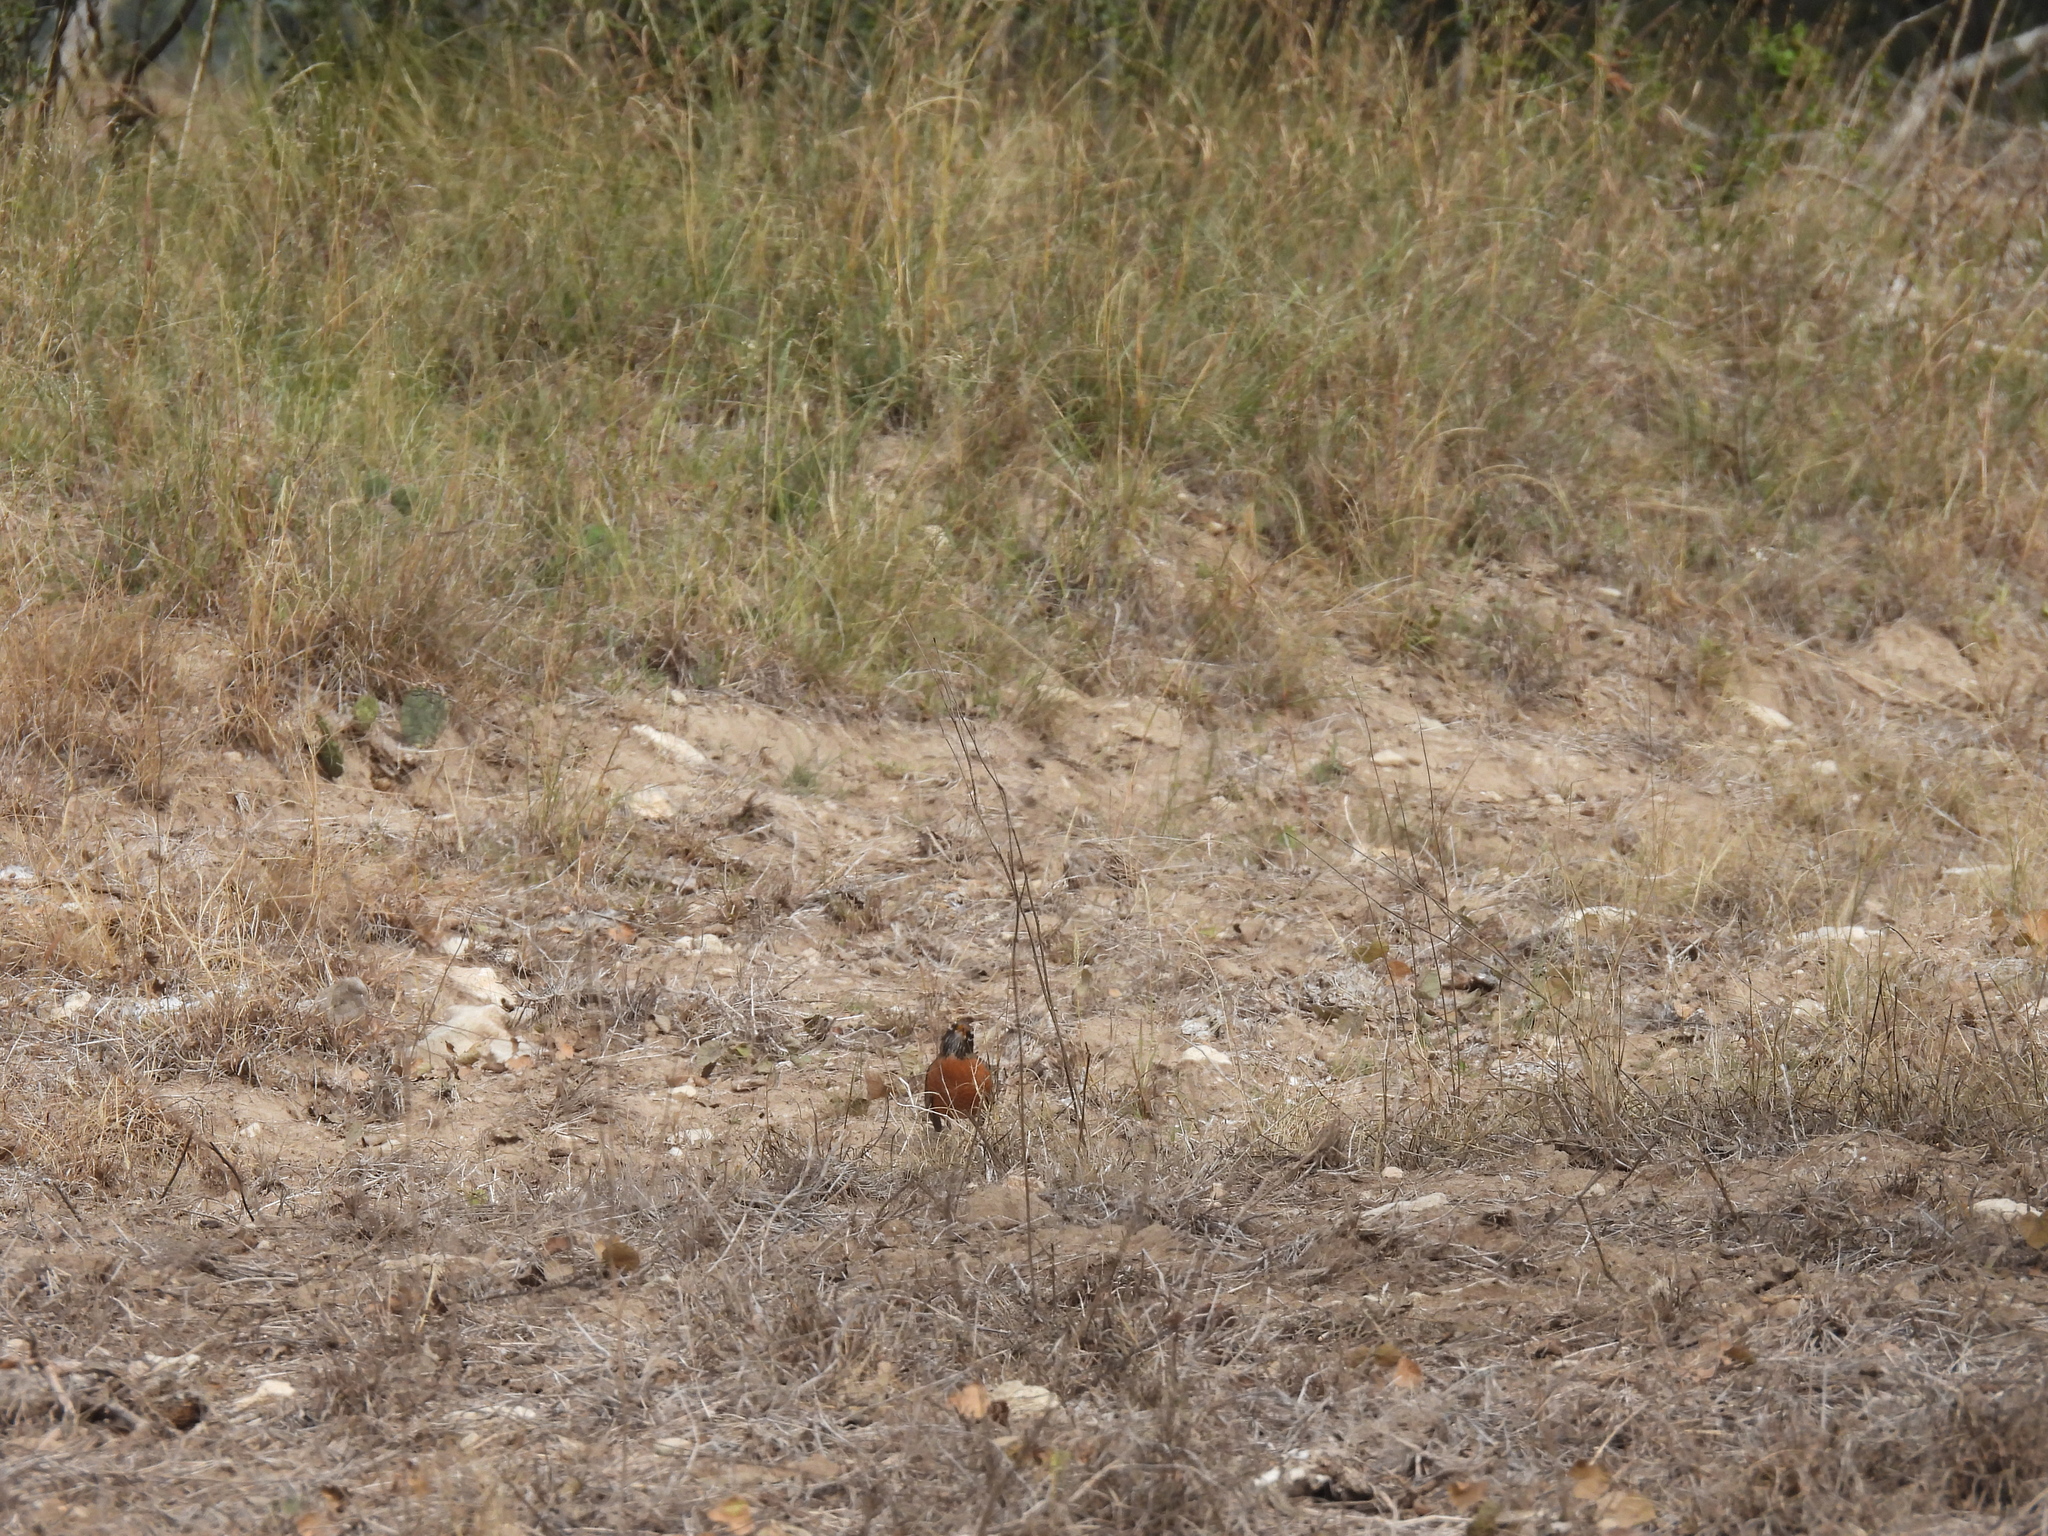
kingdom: Animalia
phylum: Chordata
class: Aves
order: Passeriformes
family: Turdidae
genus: Turdus
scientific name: Turdus migratorius
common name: American robin
